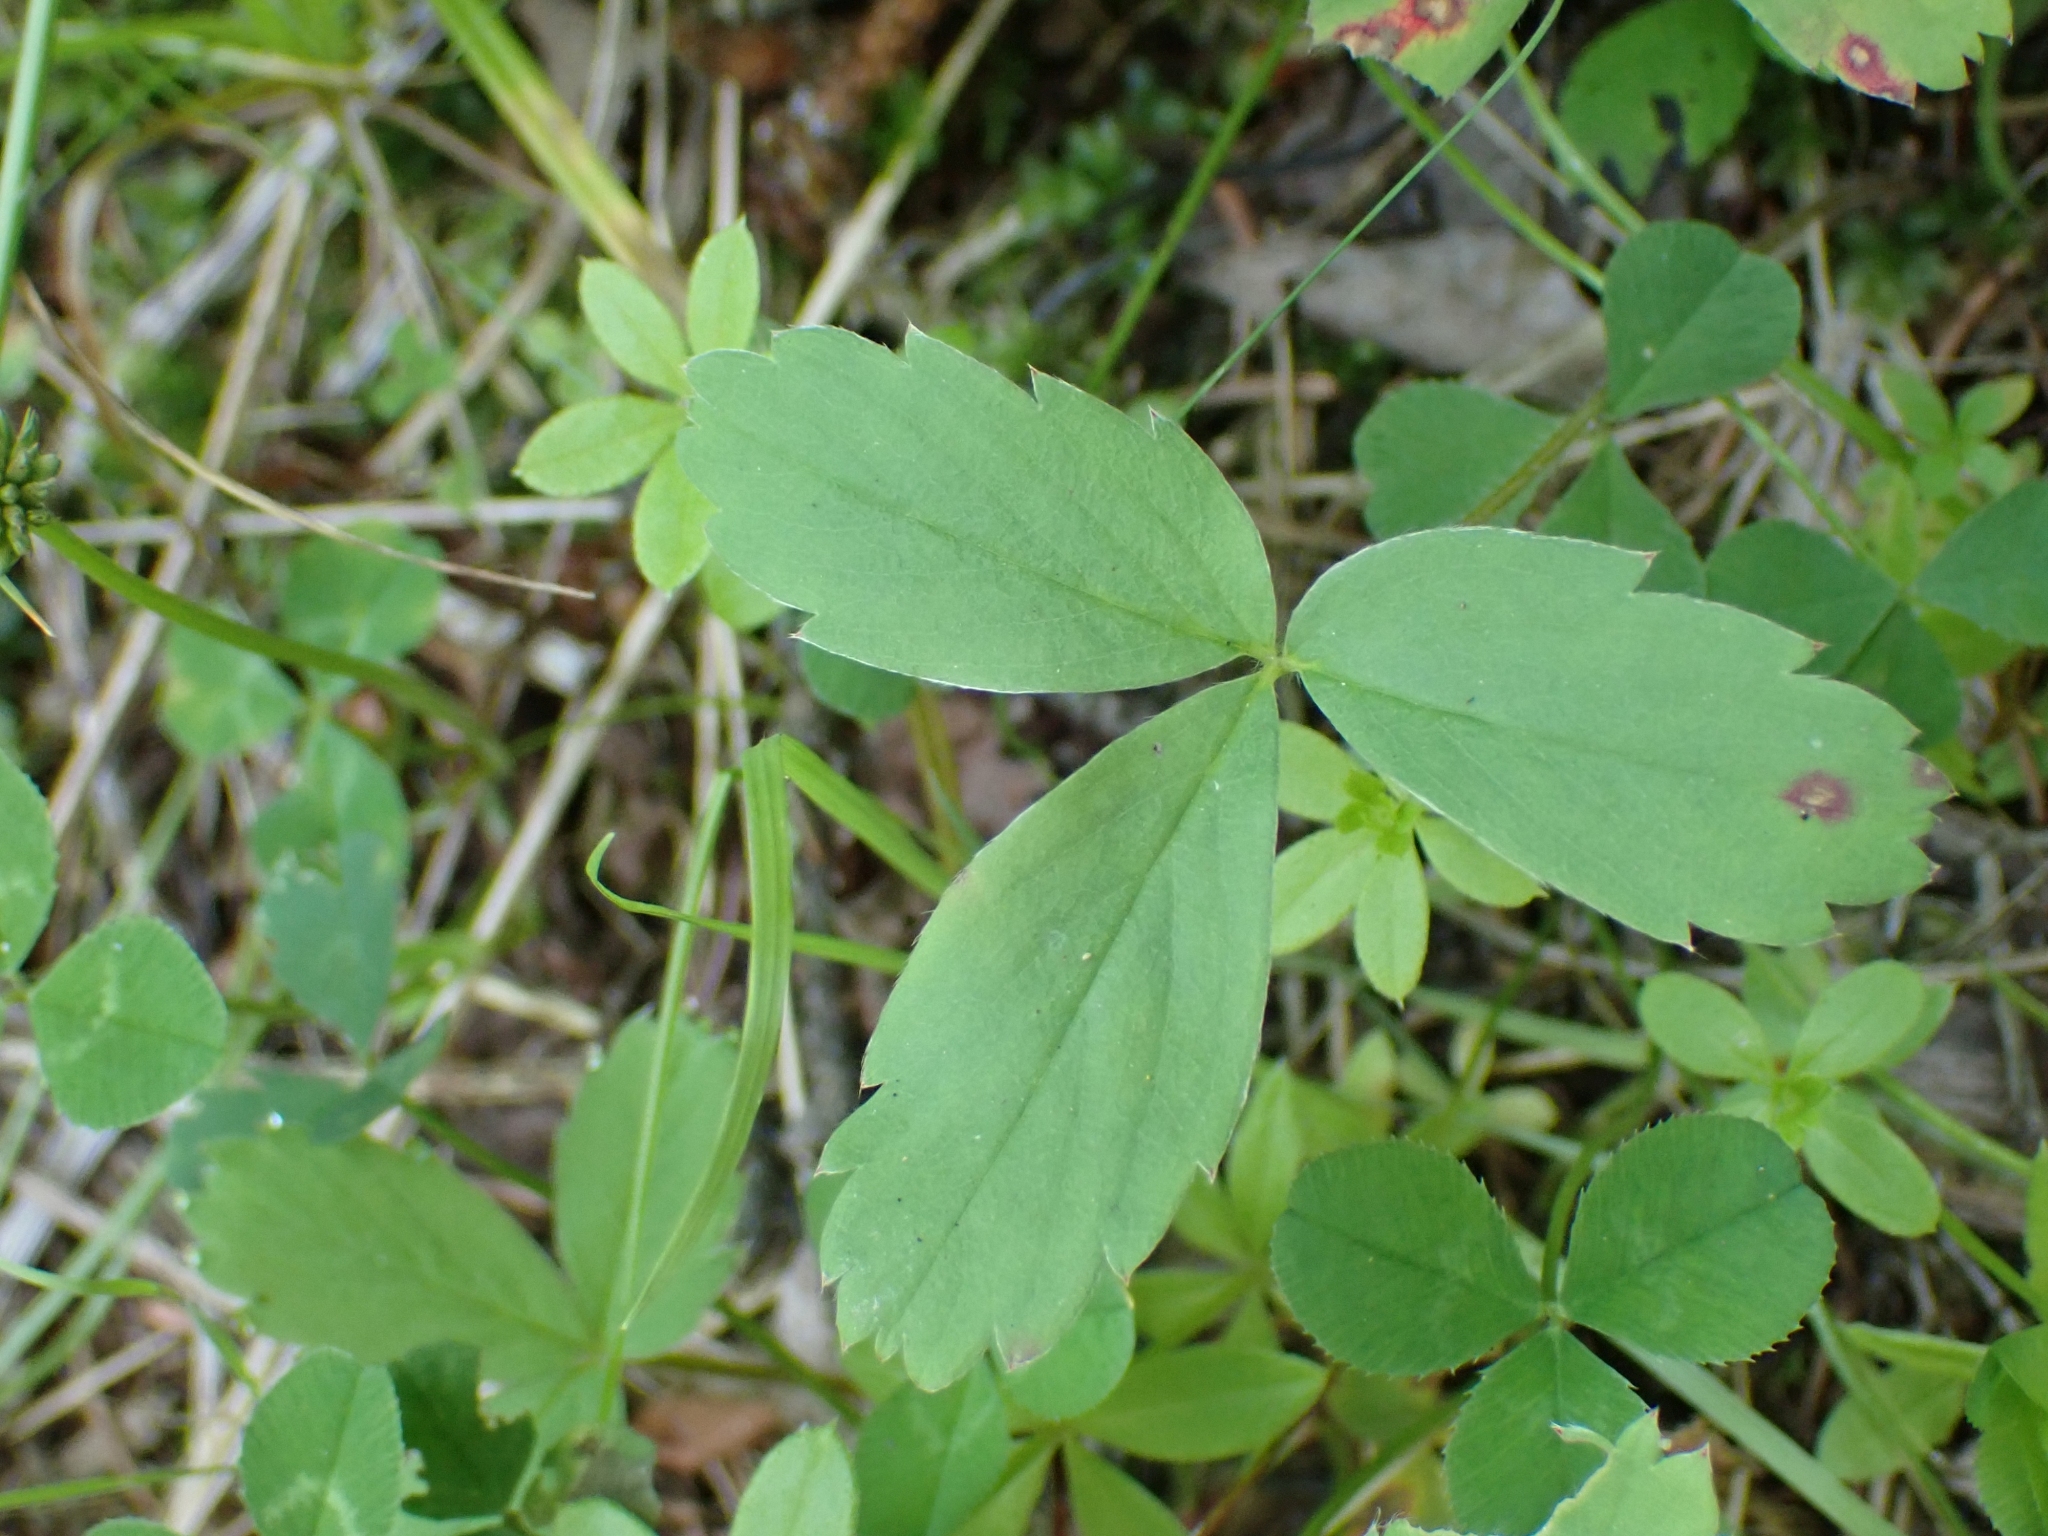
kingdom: Plantae
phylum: Tracheophyta
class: Magnoliopsida
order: Rosales
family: Rosaceae
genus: Fragaria
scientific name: Fragaria virginiana
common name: Thickleaved wild strawberry
